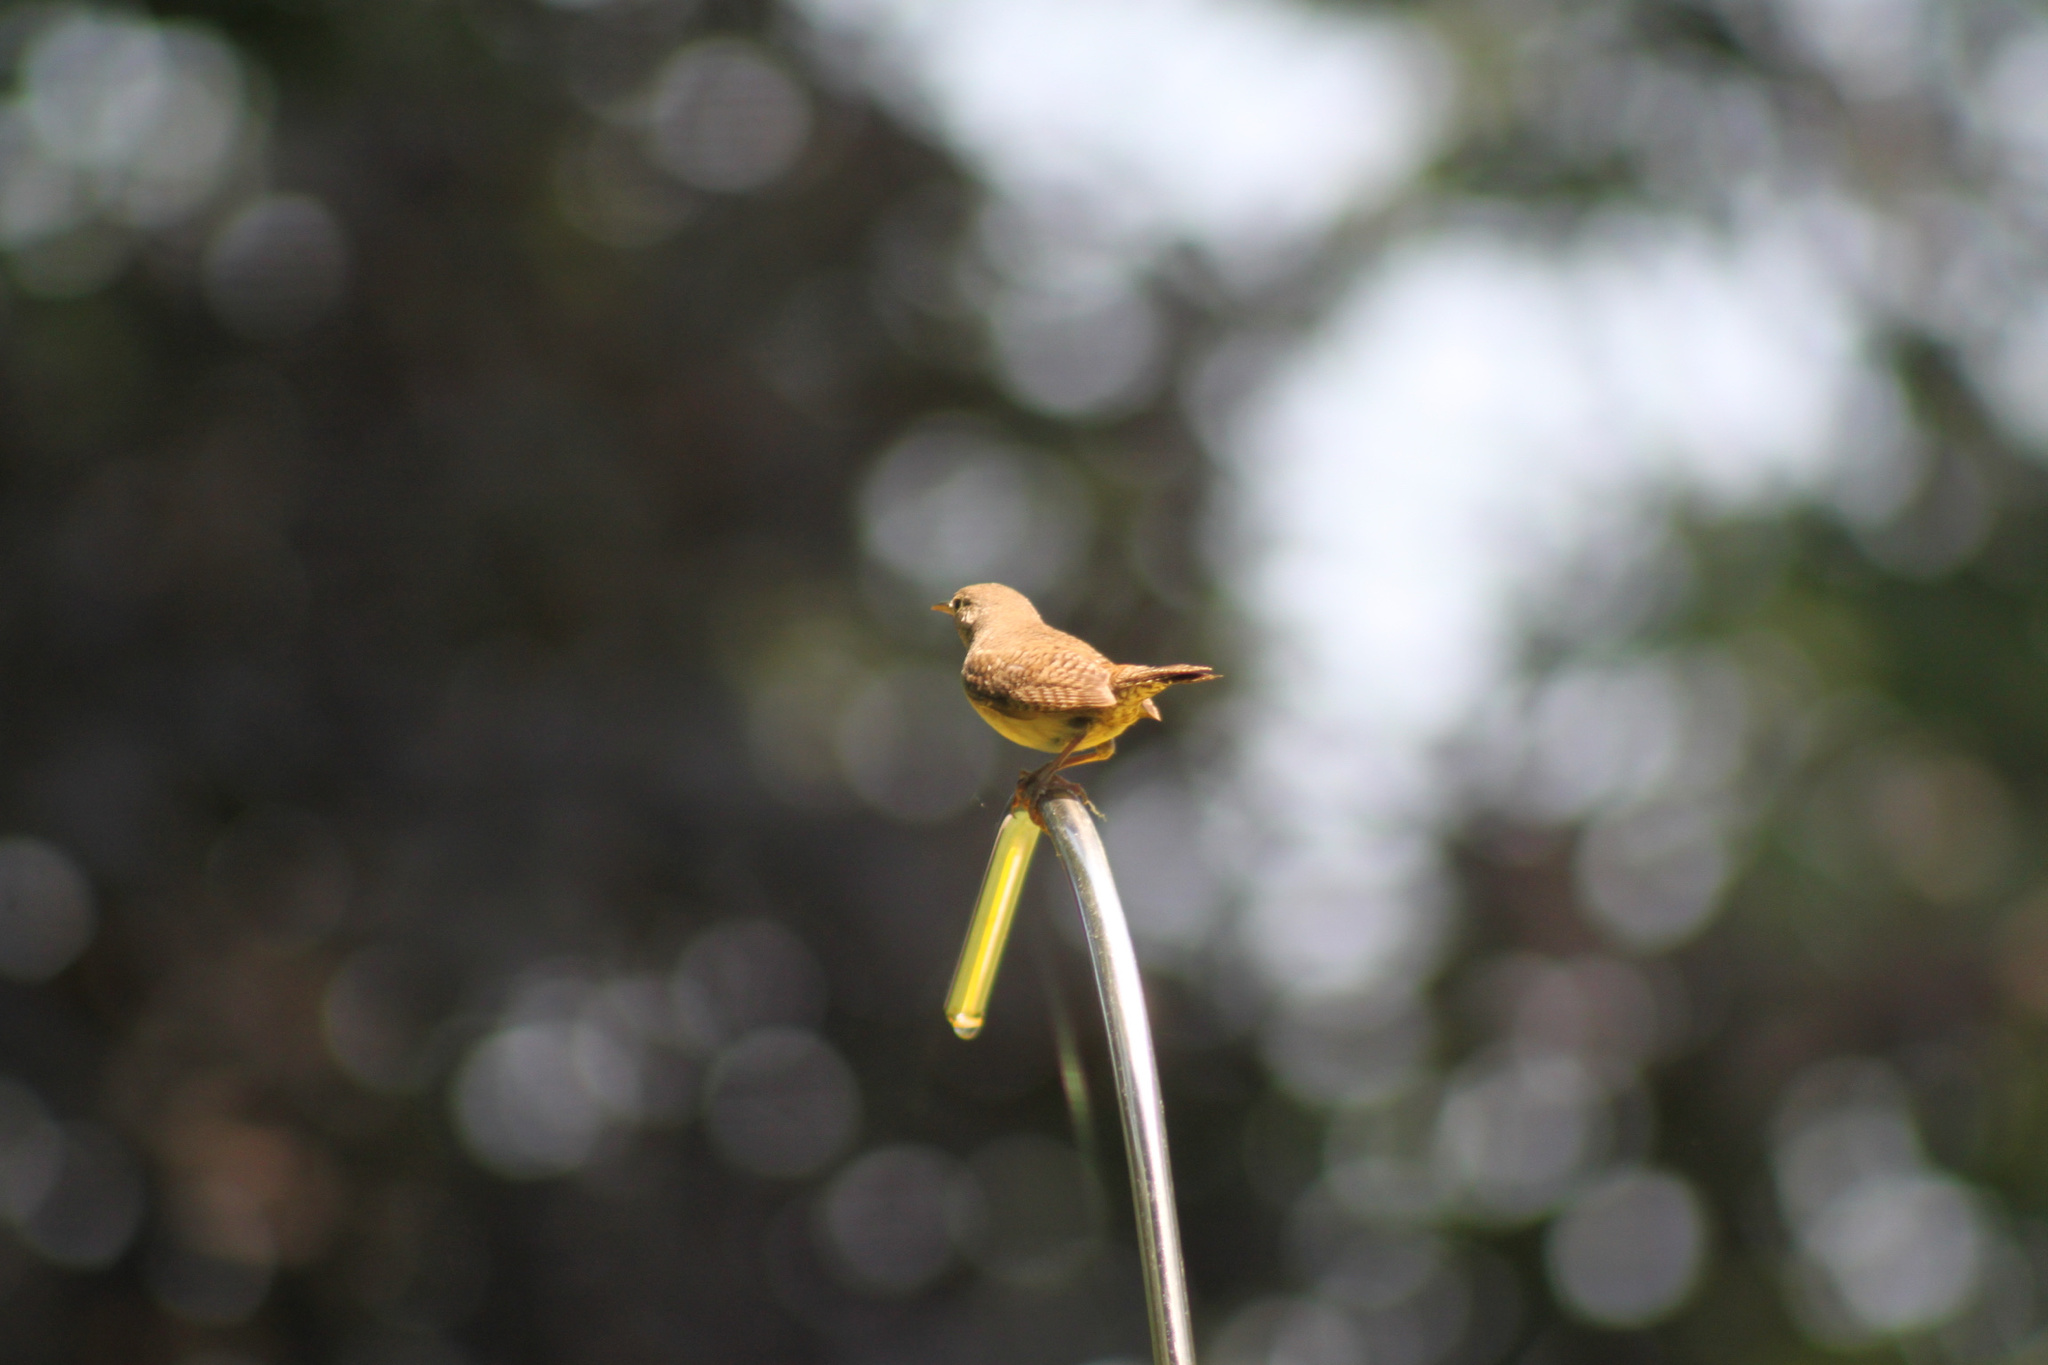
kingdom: Animalia
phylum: Chordata
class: Aves
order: Passeriformes
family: Troglodytidae
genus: Troglodytes
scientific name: Troglodytes aedon
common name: House wren
